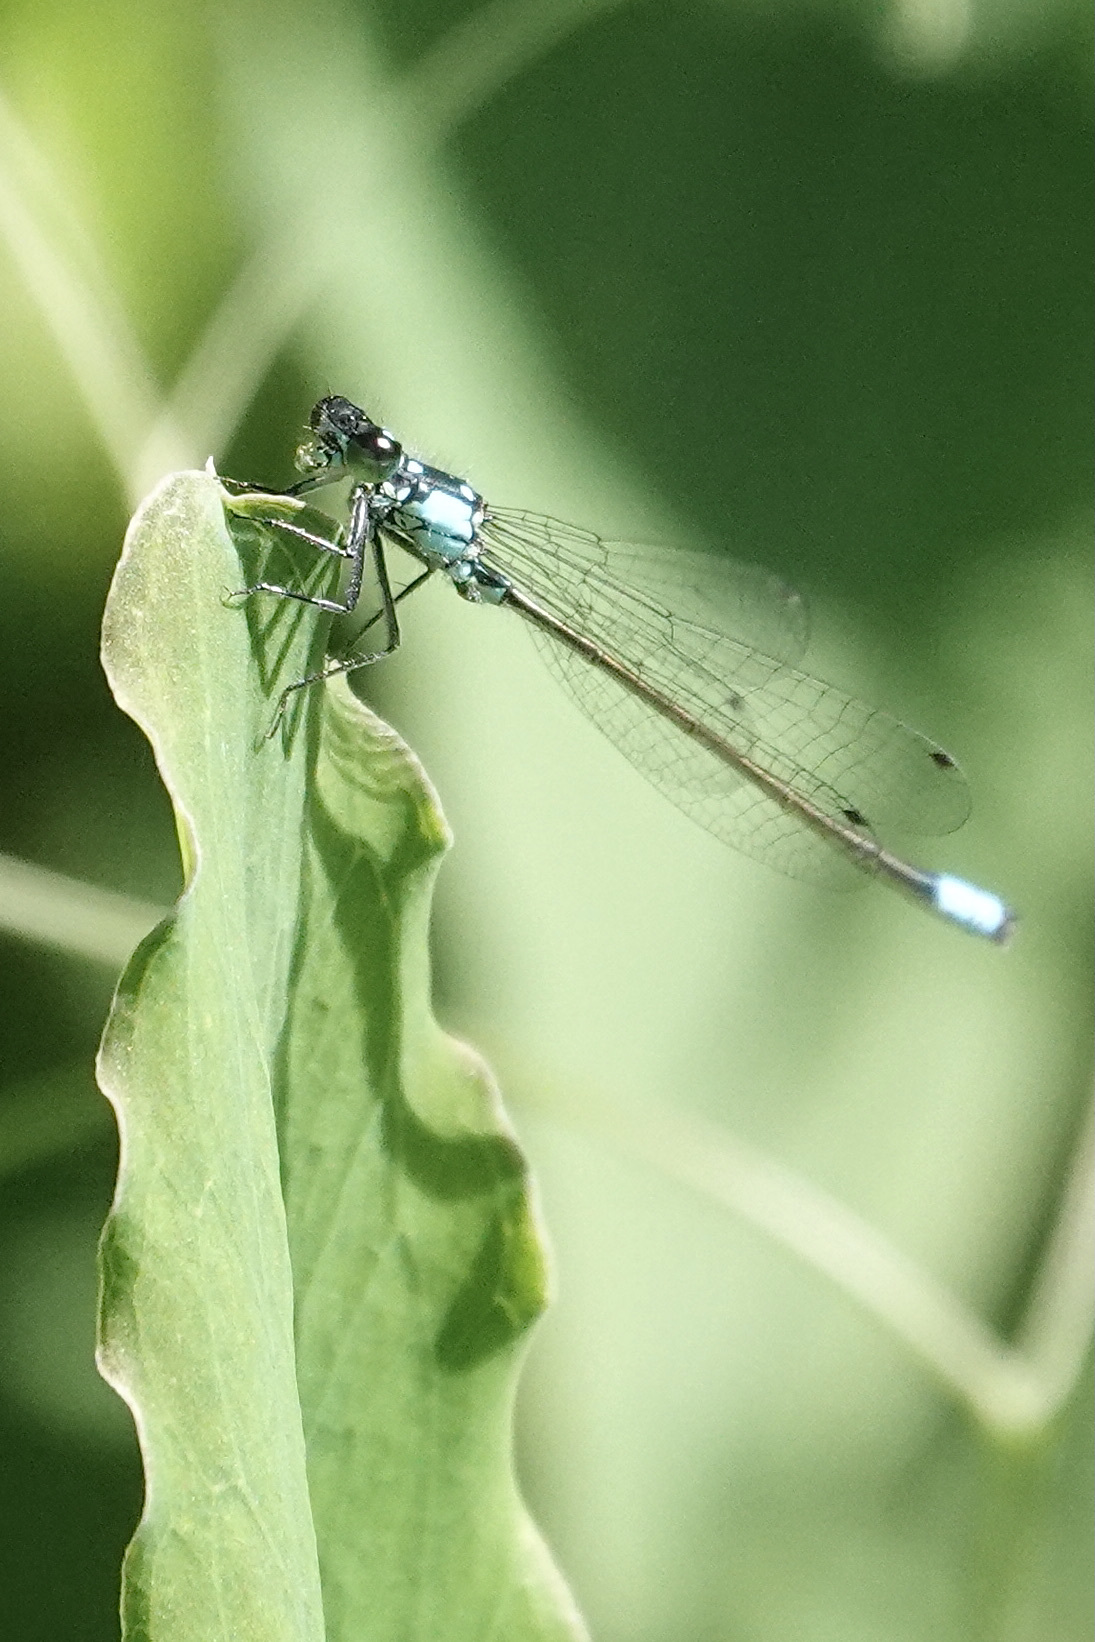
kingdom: Animalia
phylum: Arthropoda
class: Insecta
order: Odonata
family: Coenagrionidae
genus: Ischnura
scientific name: Ischnura cervula
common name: Pacific forktail
